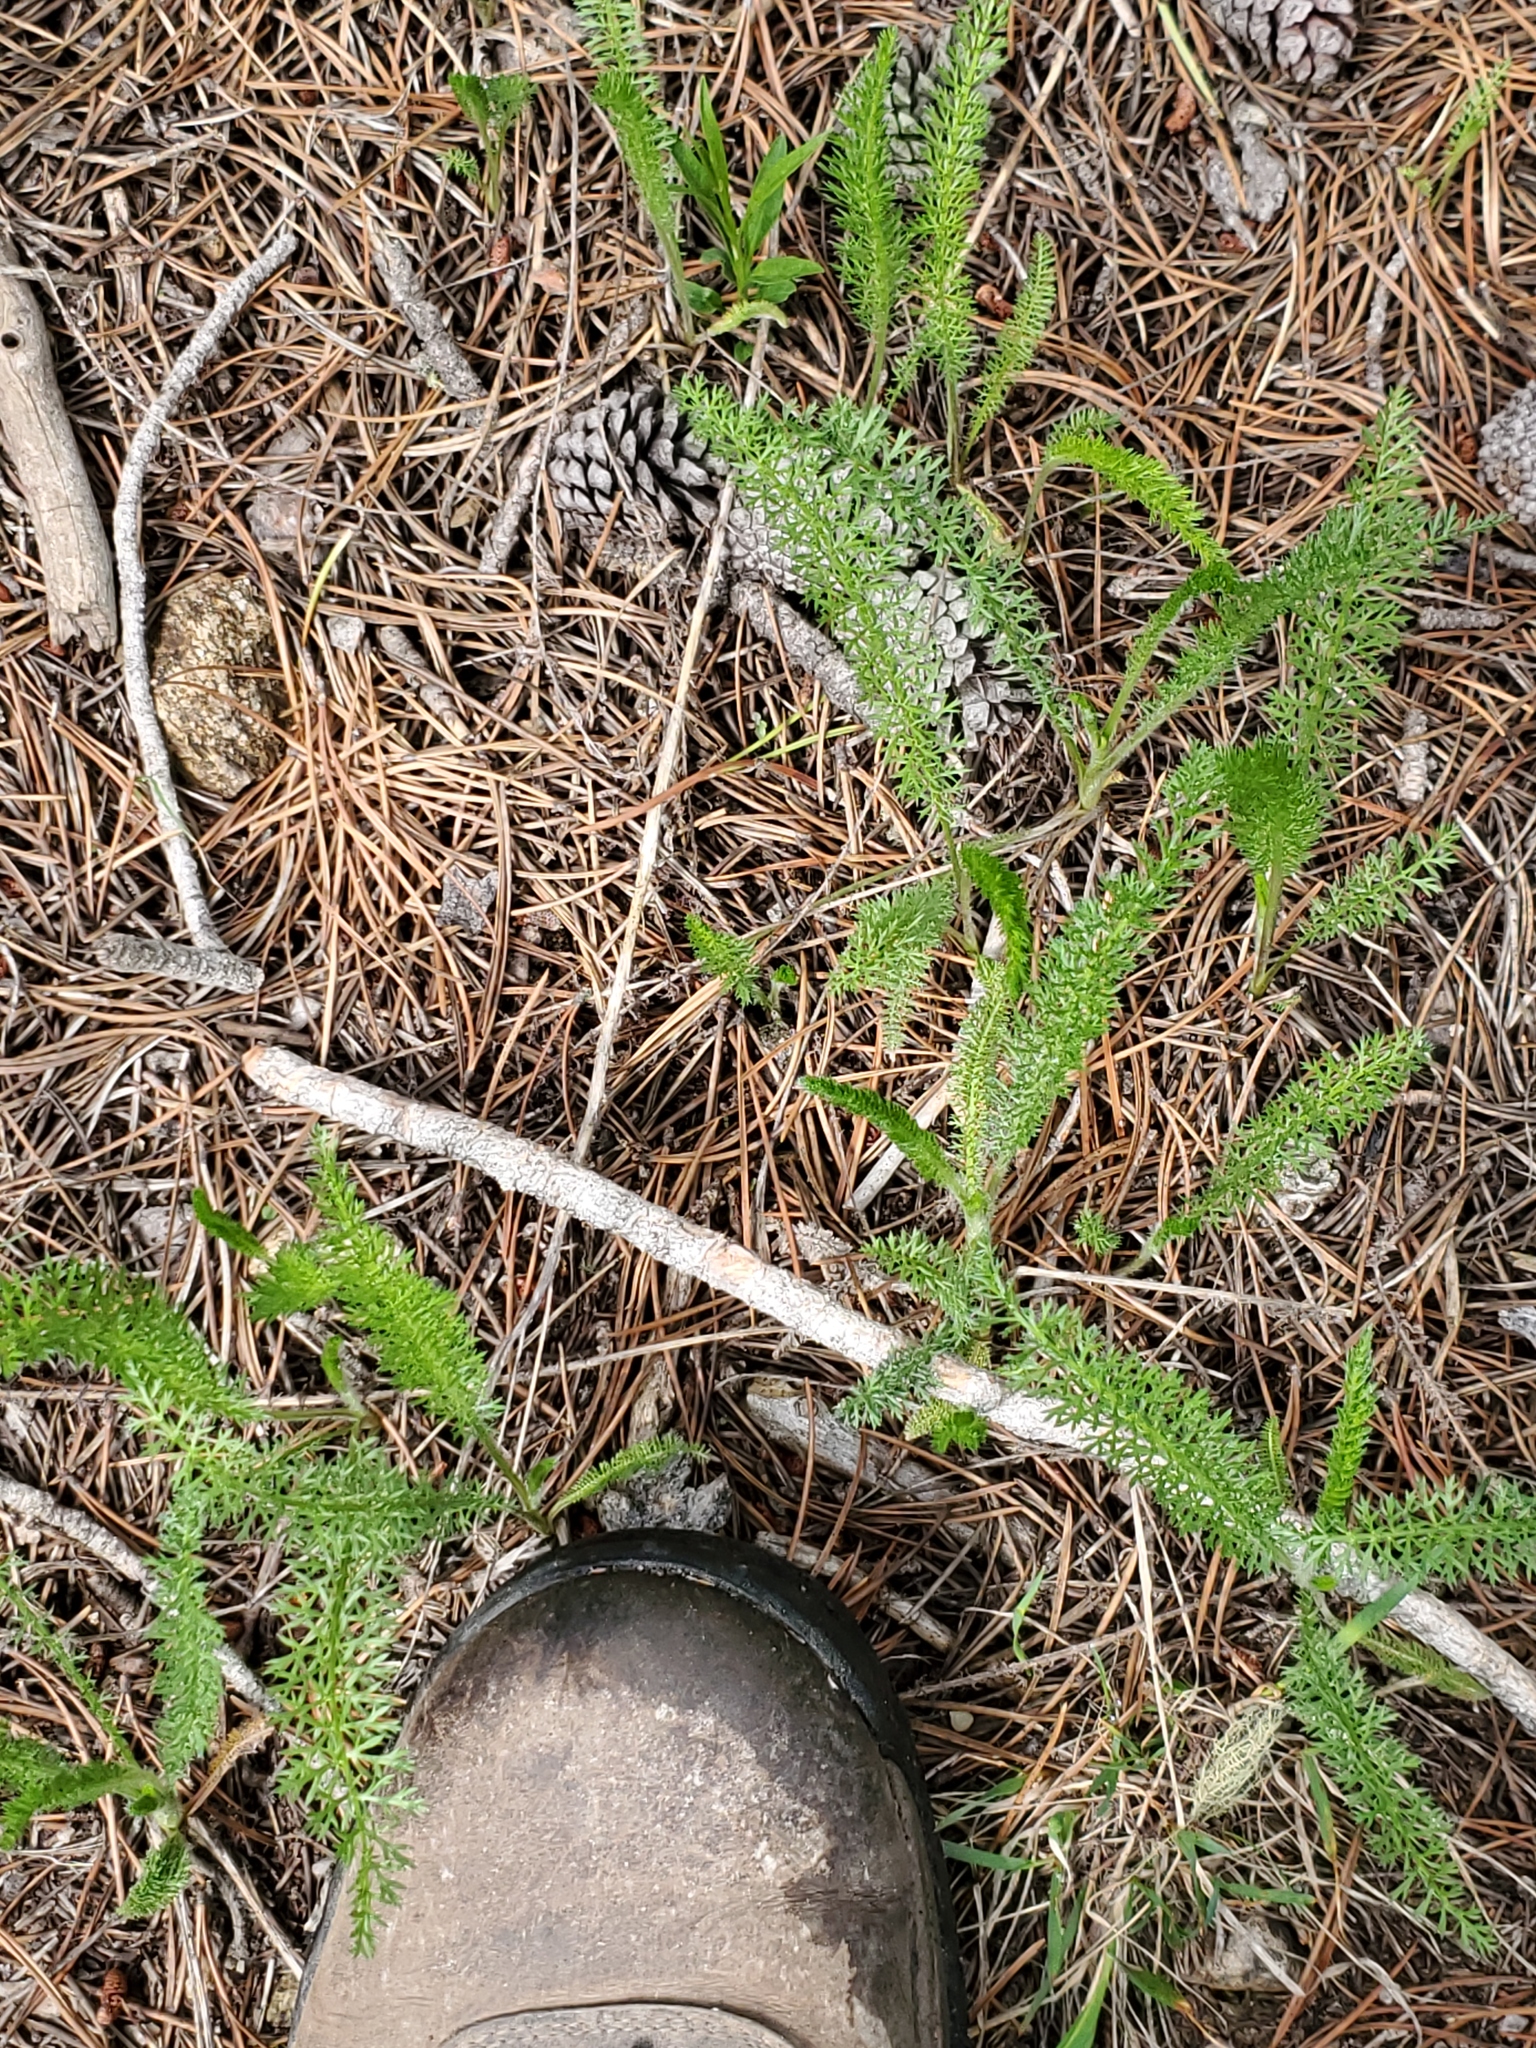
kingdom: Plantae
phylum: Tracheophyta
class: Magnoliopsida
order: Asterales
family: Asteraceae
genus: Achillea
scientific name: Achillea millefolium
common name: Yarrow
